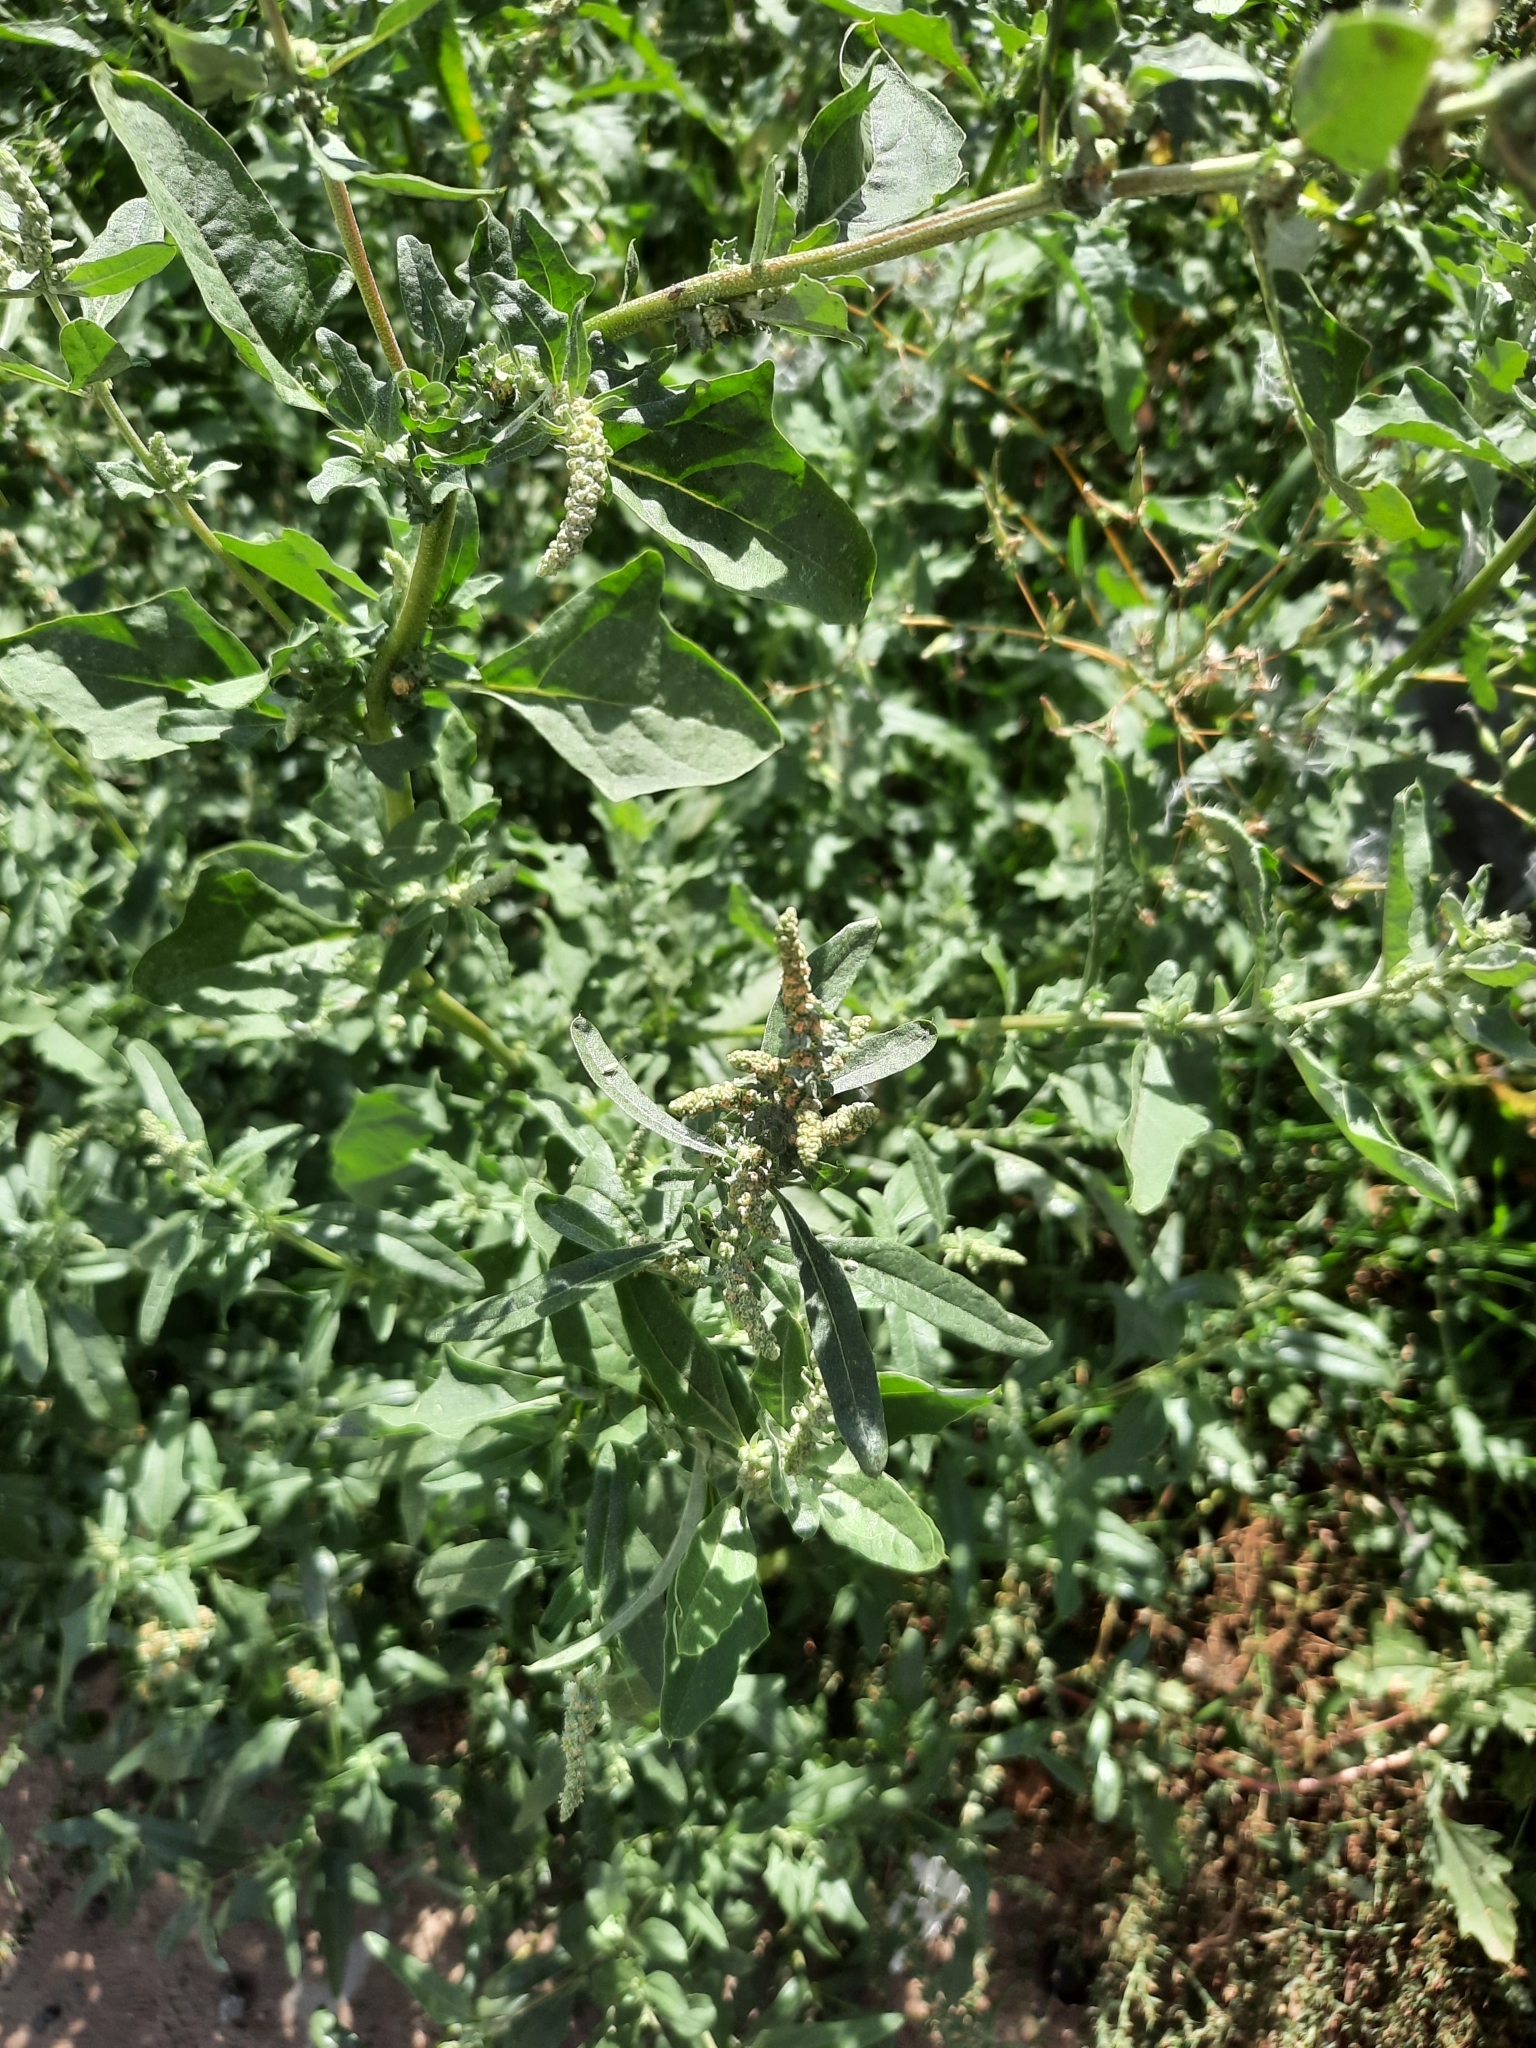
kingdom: Plantae
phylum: Tracheophyta
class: Magnoliopsida
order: Caryophyllales
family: Amaranthaceae
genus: Atriplex
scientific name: Atriplex tatarica
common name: Tatarian orache
